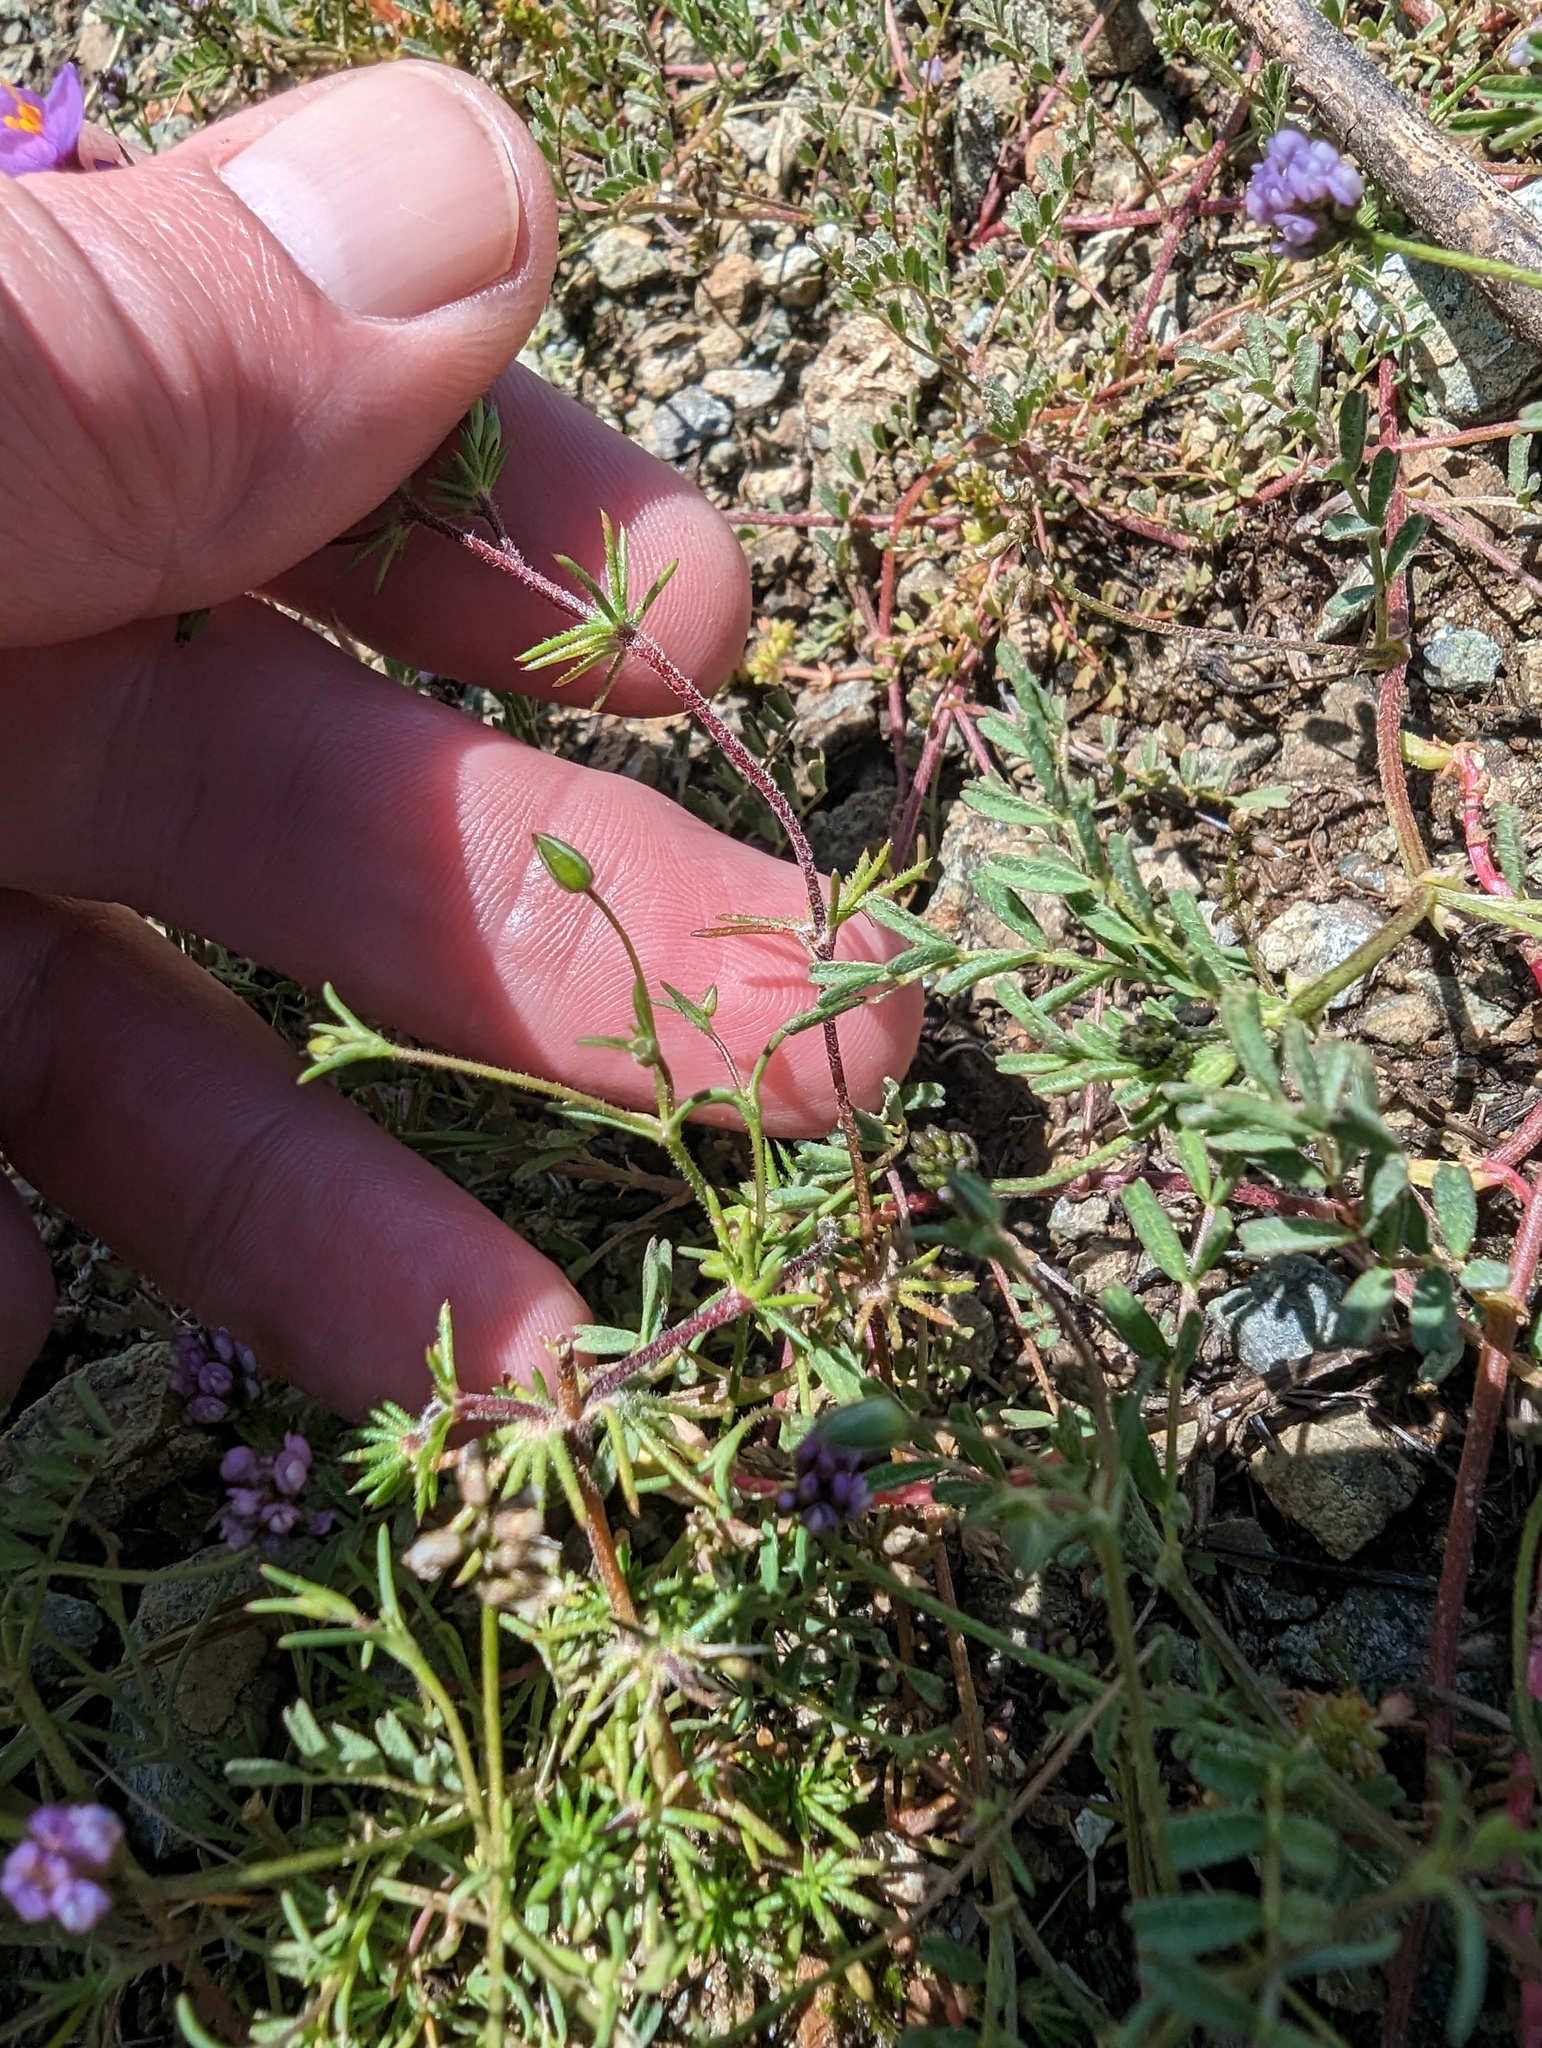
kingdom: Plantae
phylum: Tracheophyta
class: Magnoliopsida
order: Ericales
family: Polemoniaceae
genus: Leptosiphon
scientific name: Leptosiphon ambiguus
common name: Serpentine linanthus
